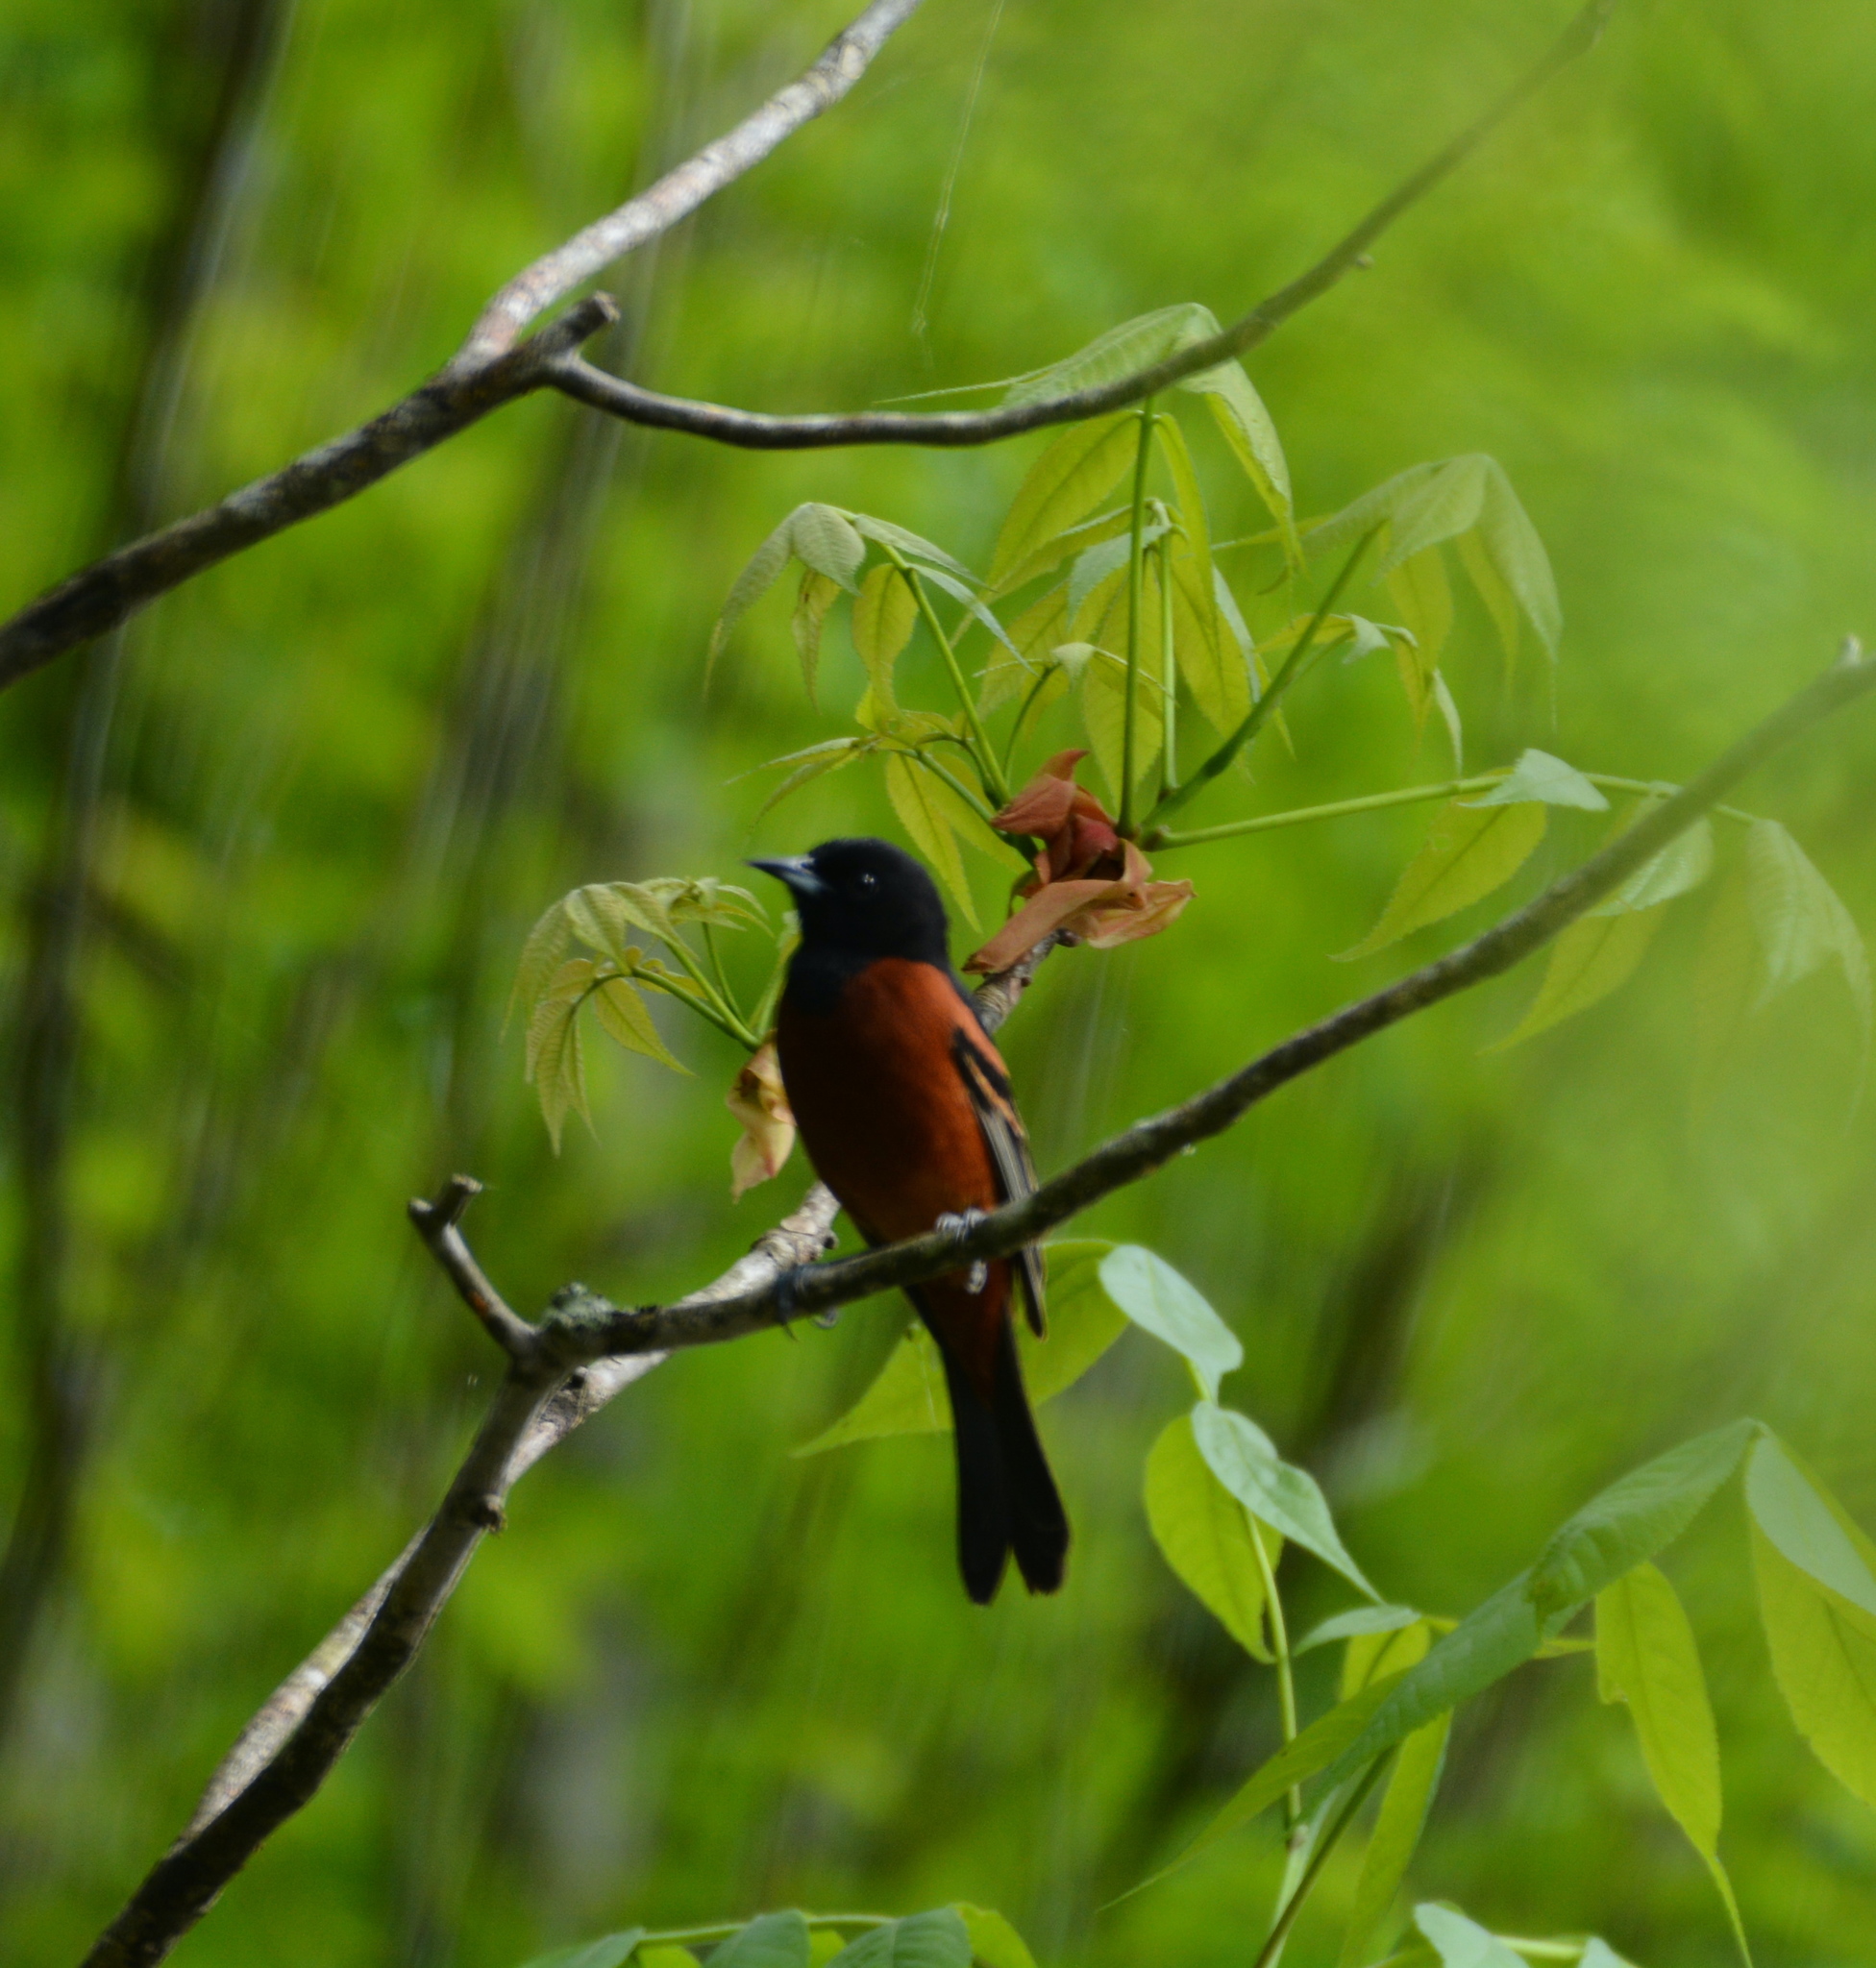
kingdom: Animalia
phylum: Chordata
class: Aves
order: Passeriformes
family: Icteridae
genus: Icterus
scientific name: Icterus spurius
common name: Orchard oriole
